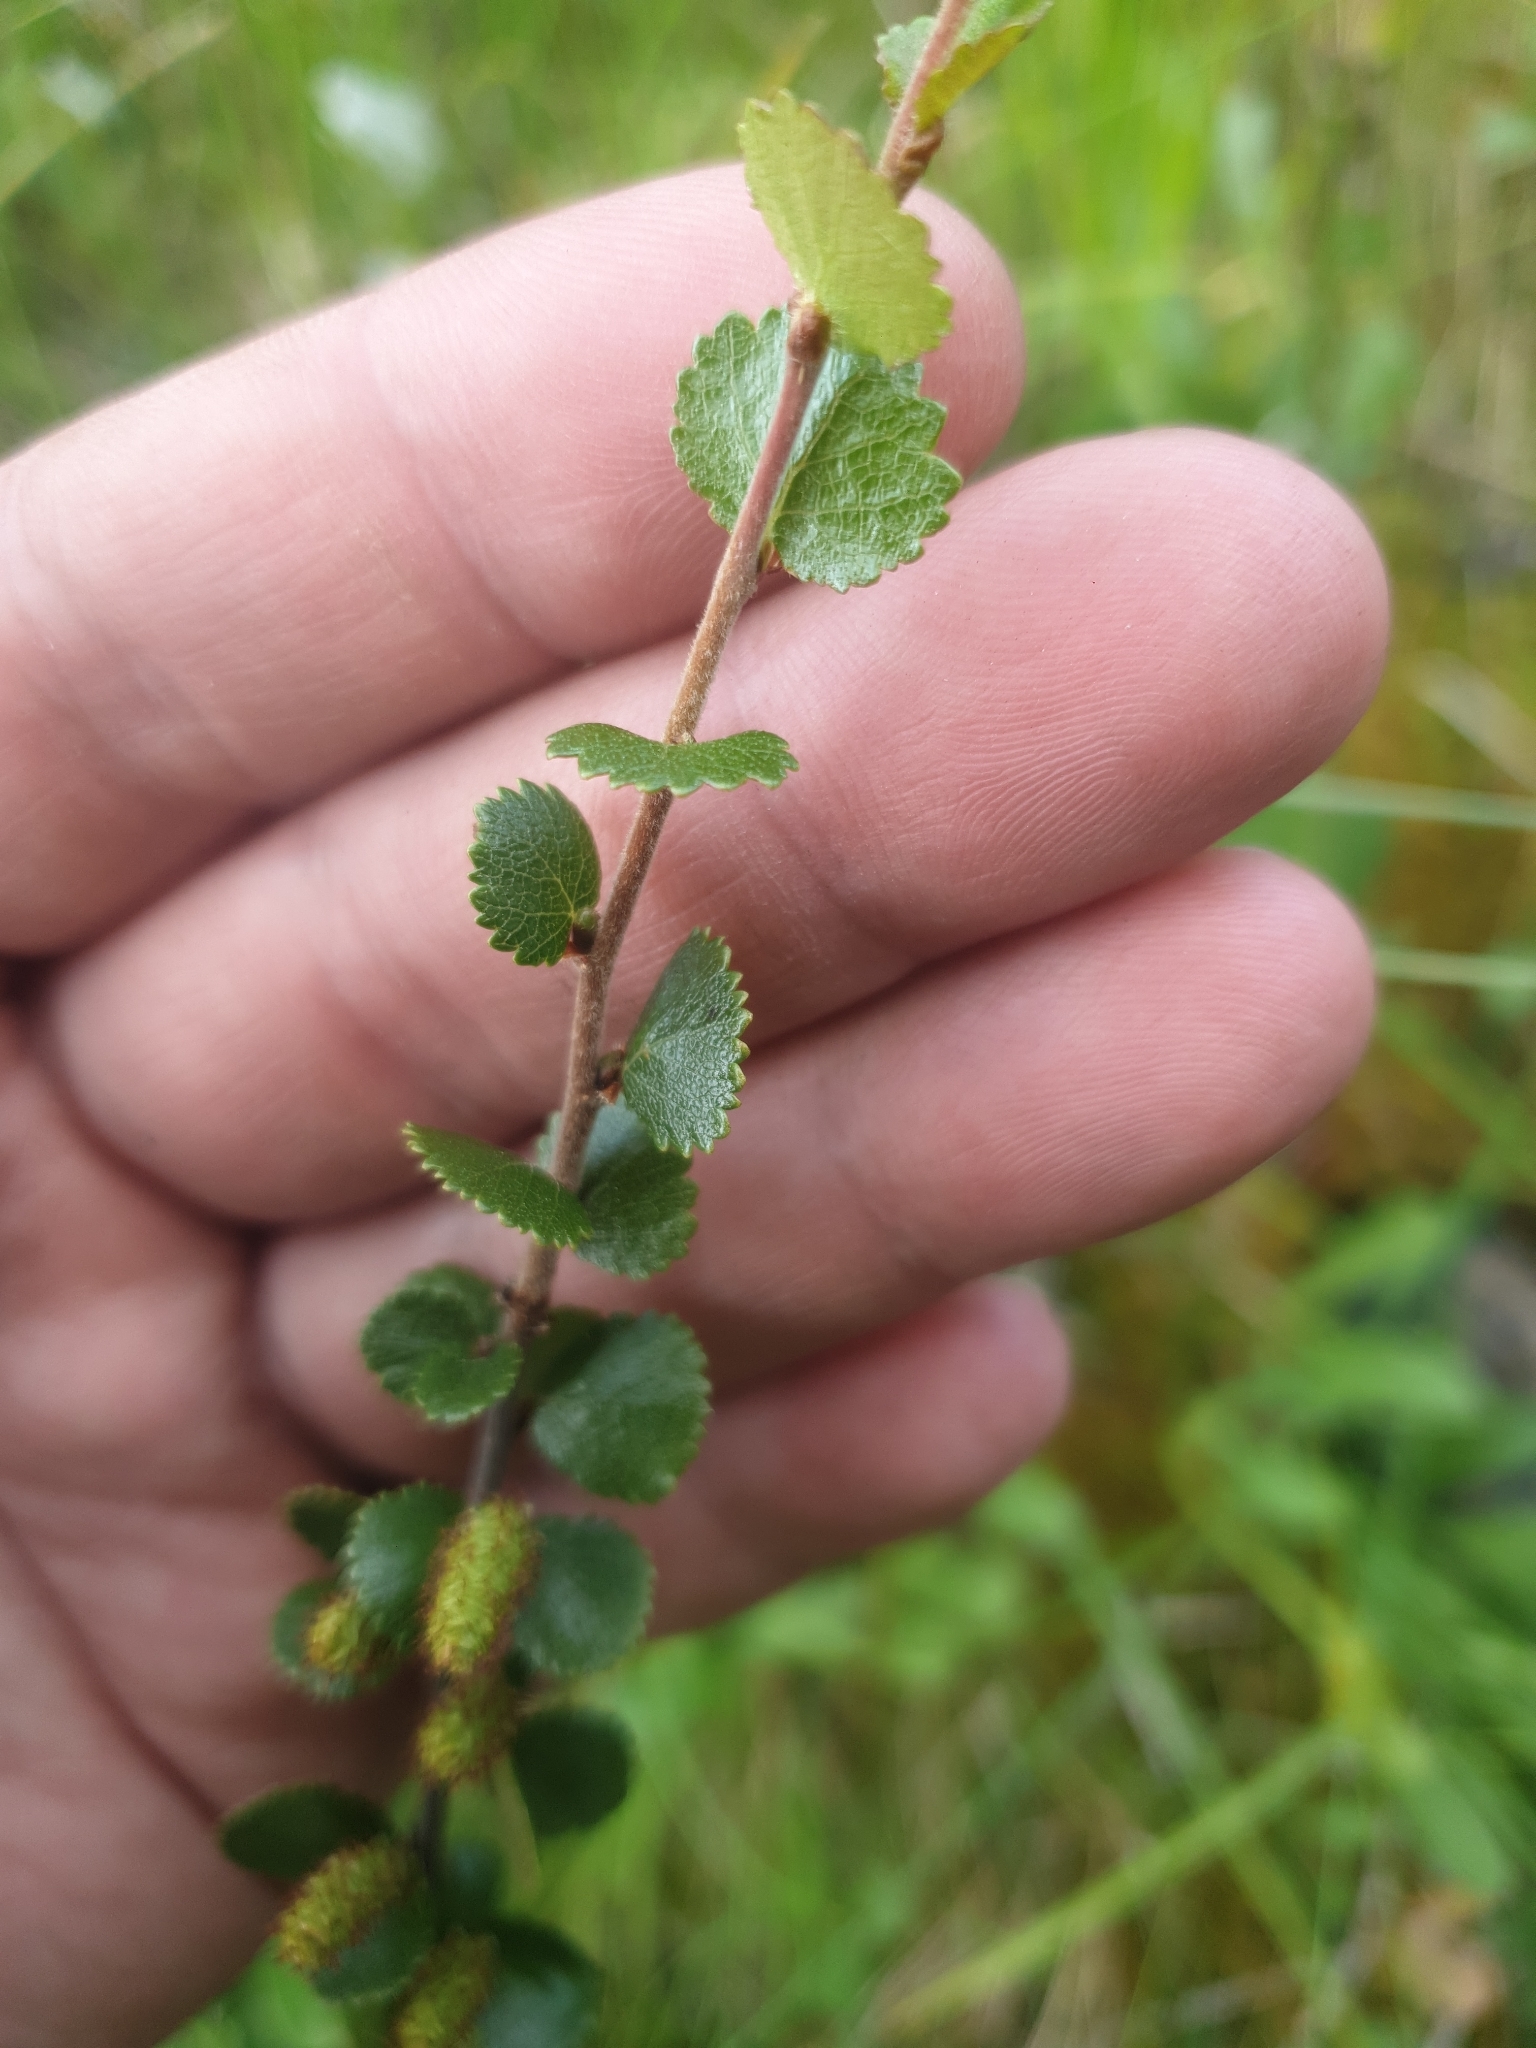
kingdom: Plantae
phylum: Tracheophyta
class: Magnoliopsida
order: Fagales
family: Betulaceae
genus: Betula
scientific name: Betula nana
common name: Arctic dwarf birch
